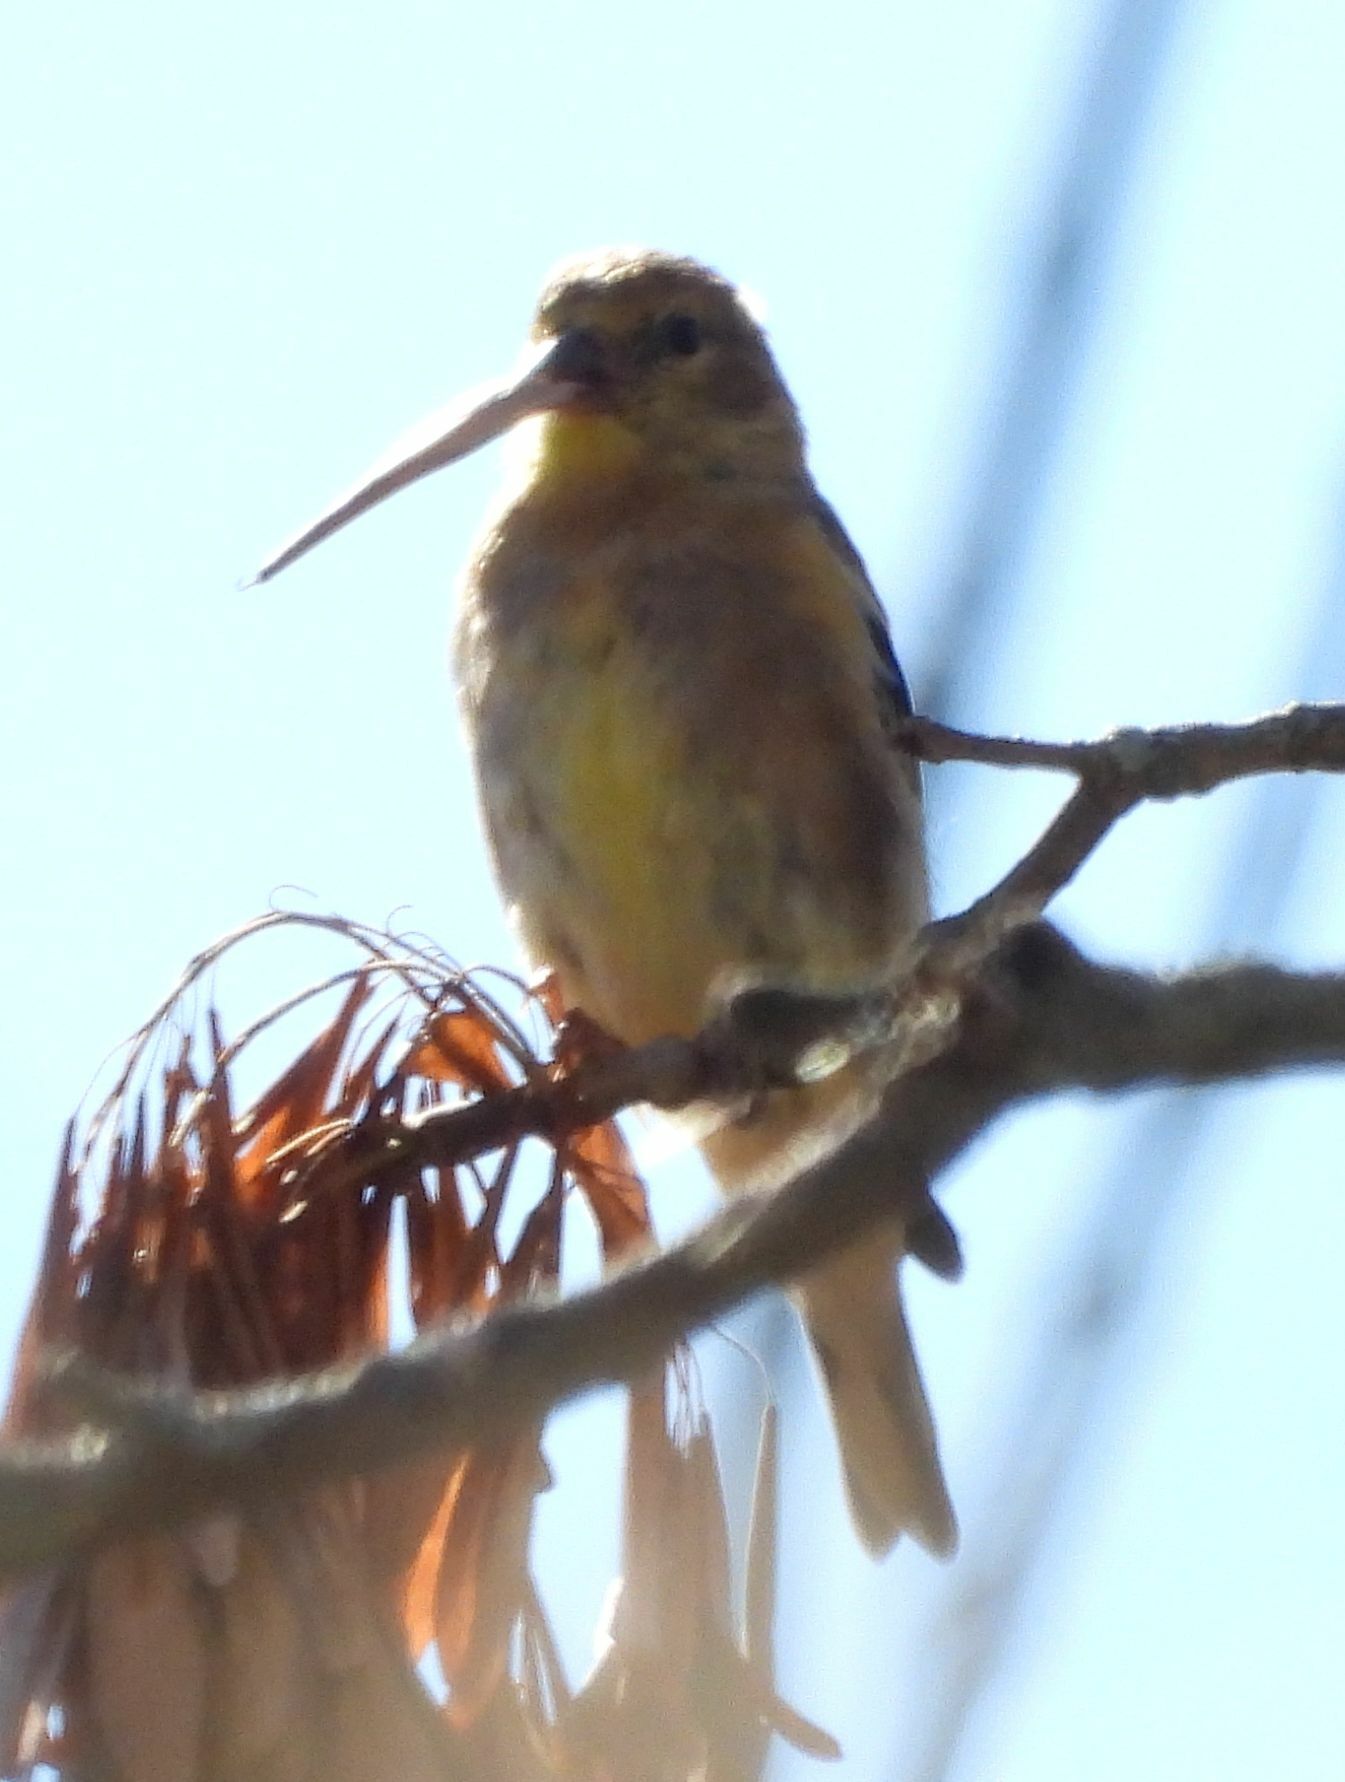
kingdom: Animalia
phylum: Chordata
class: Aves
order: Passeriformes
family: Fringillidae
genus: Spinus
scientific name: Spinus tristis
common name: American goldfinch
